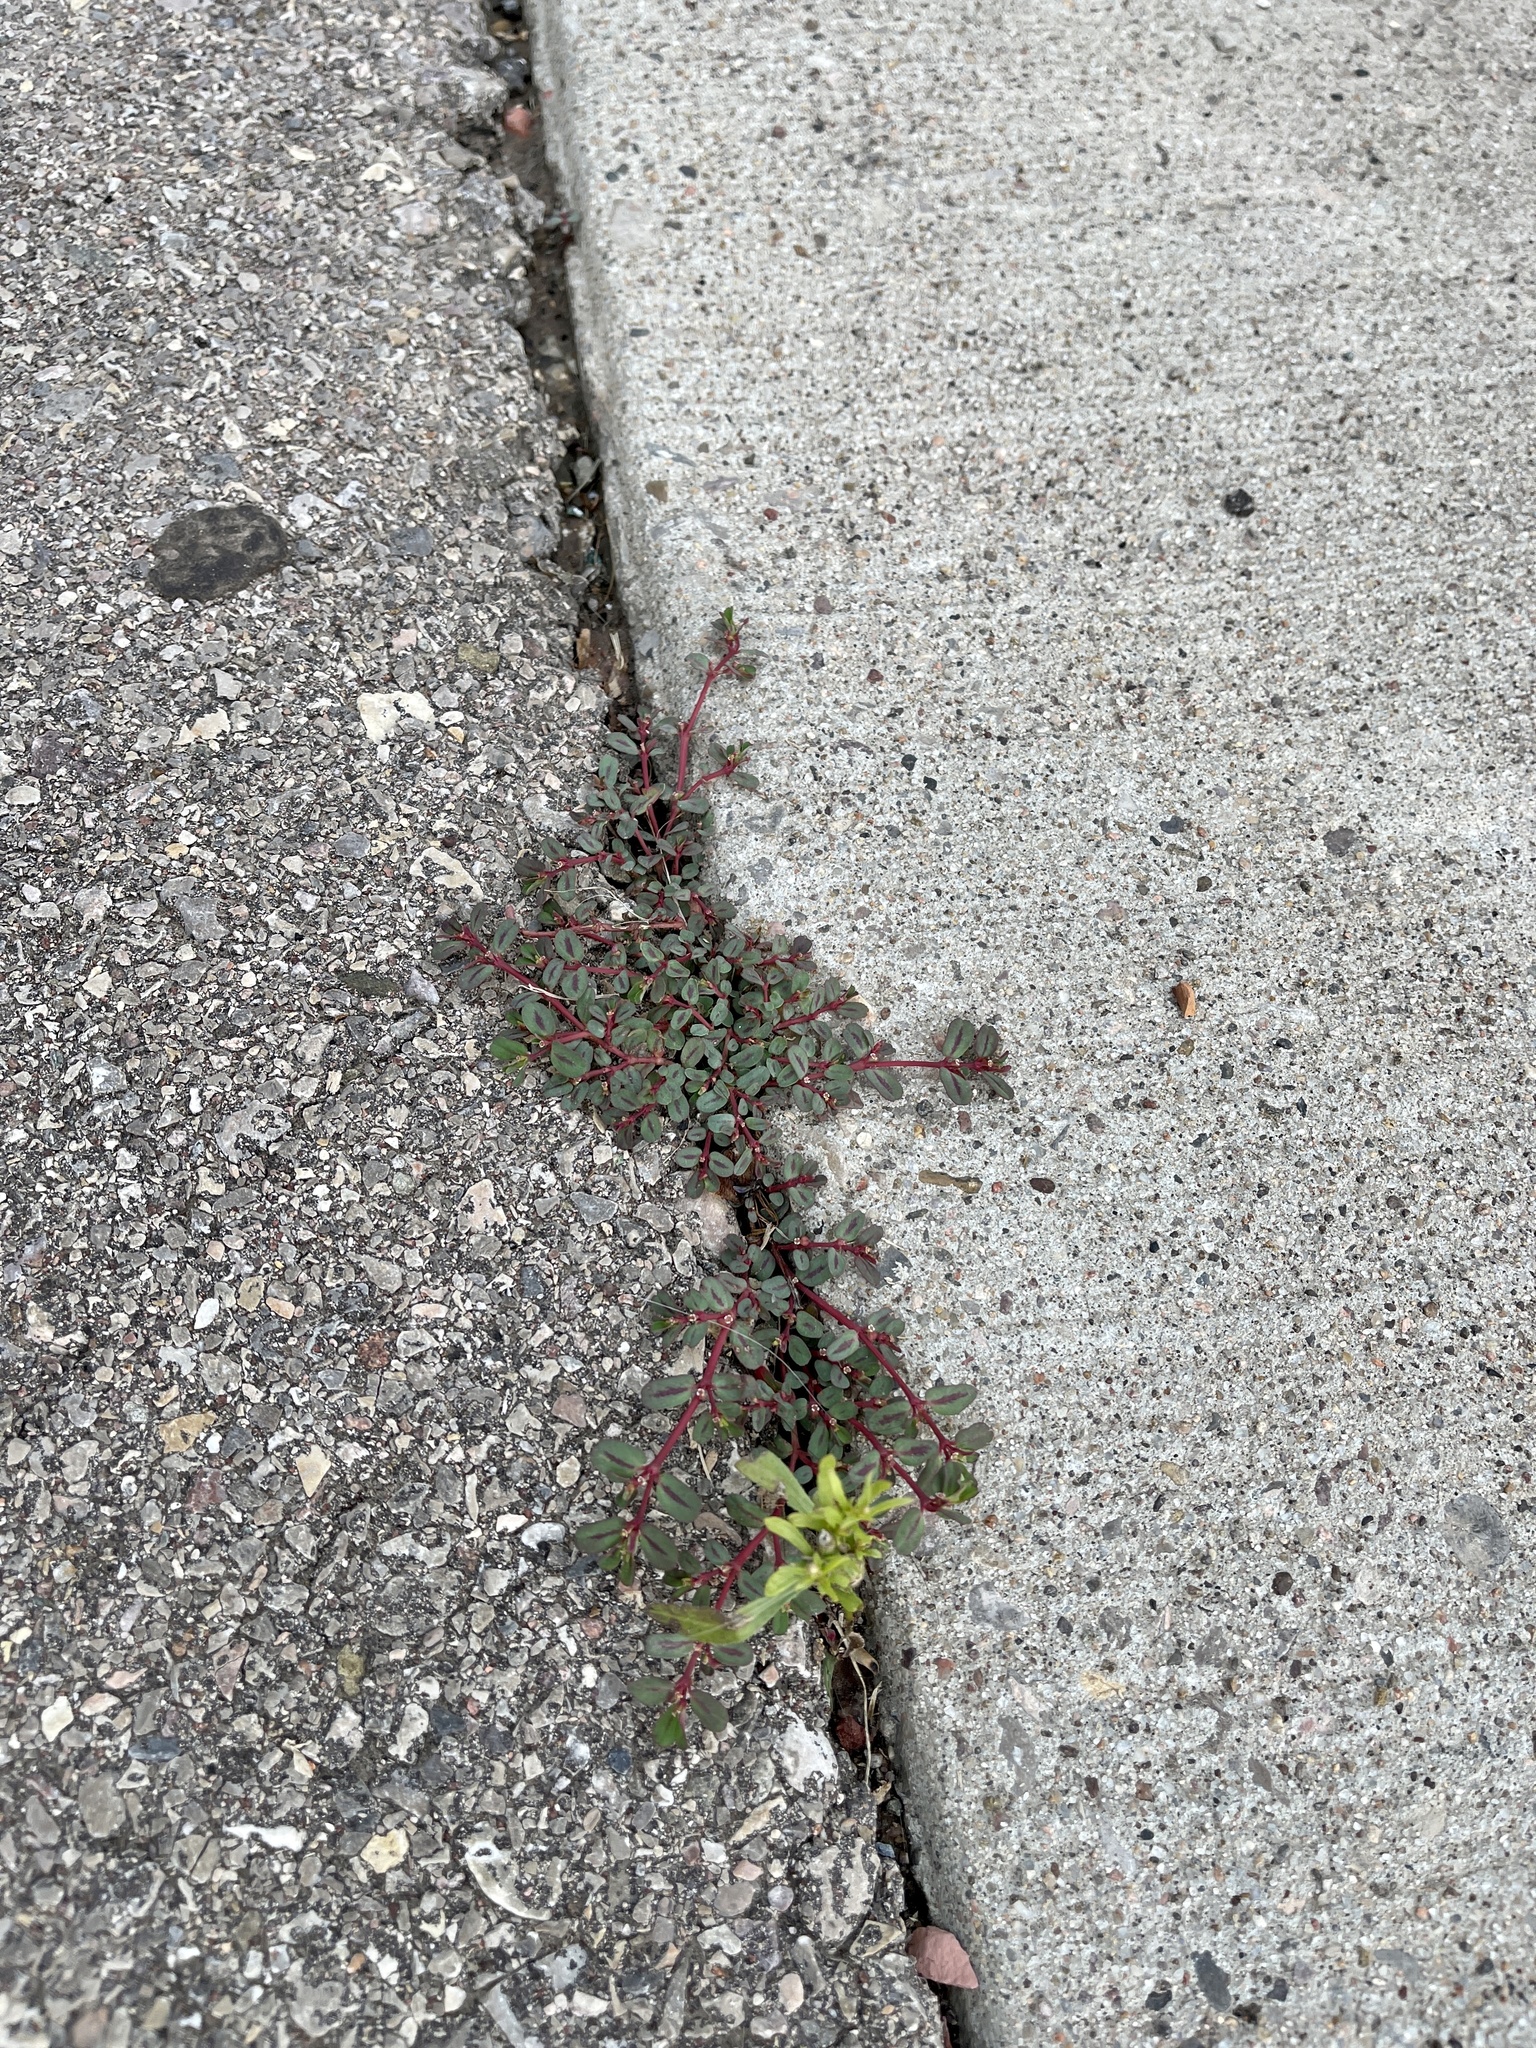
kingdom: Plantae
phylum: Tracheophyta
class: Magnoliopsida
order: Malpighiales
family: Euphorbiaceae
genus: Euphorbia
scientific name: Euphorbia serpillifolia
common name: Thyme-leaf spurge
